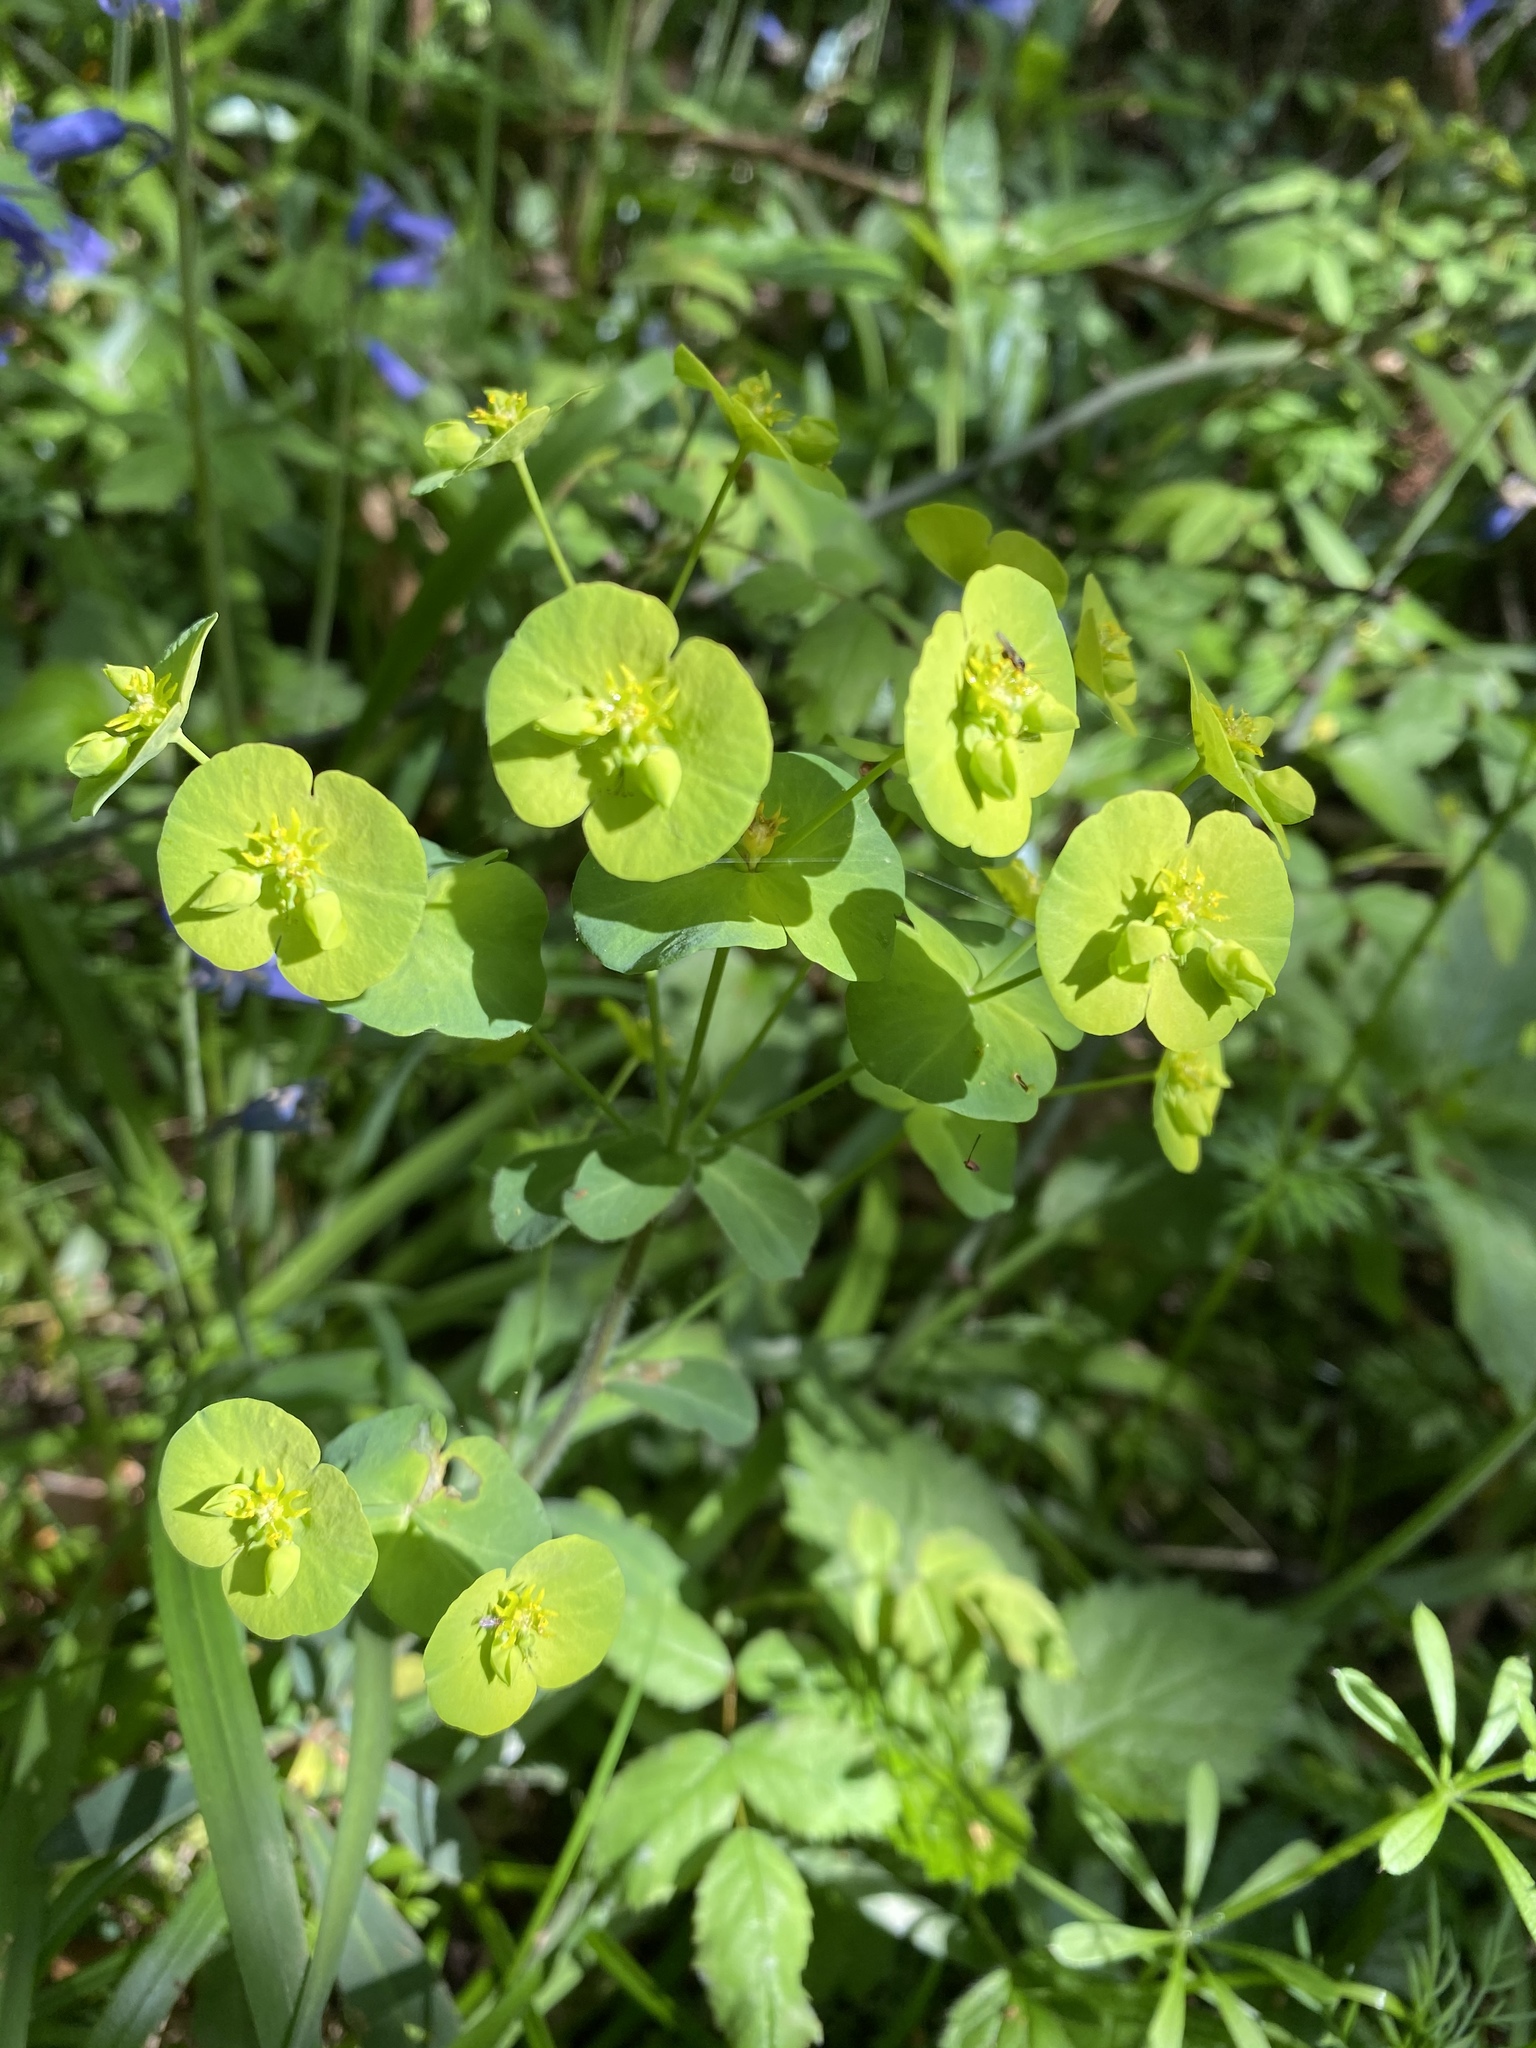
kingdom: Plantae
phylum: Tracheophyta
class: Magnoliopsida
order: Malpighiales
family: Euphorbiaceae
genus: Euphorbia
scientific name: Euphorbia amygdaloides
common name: Wood spurge
